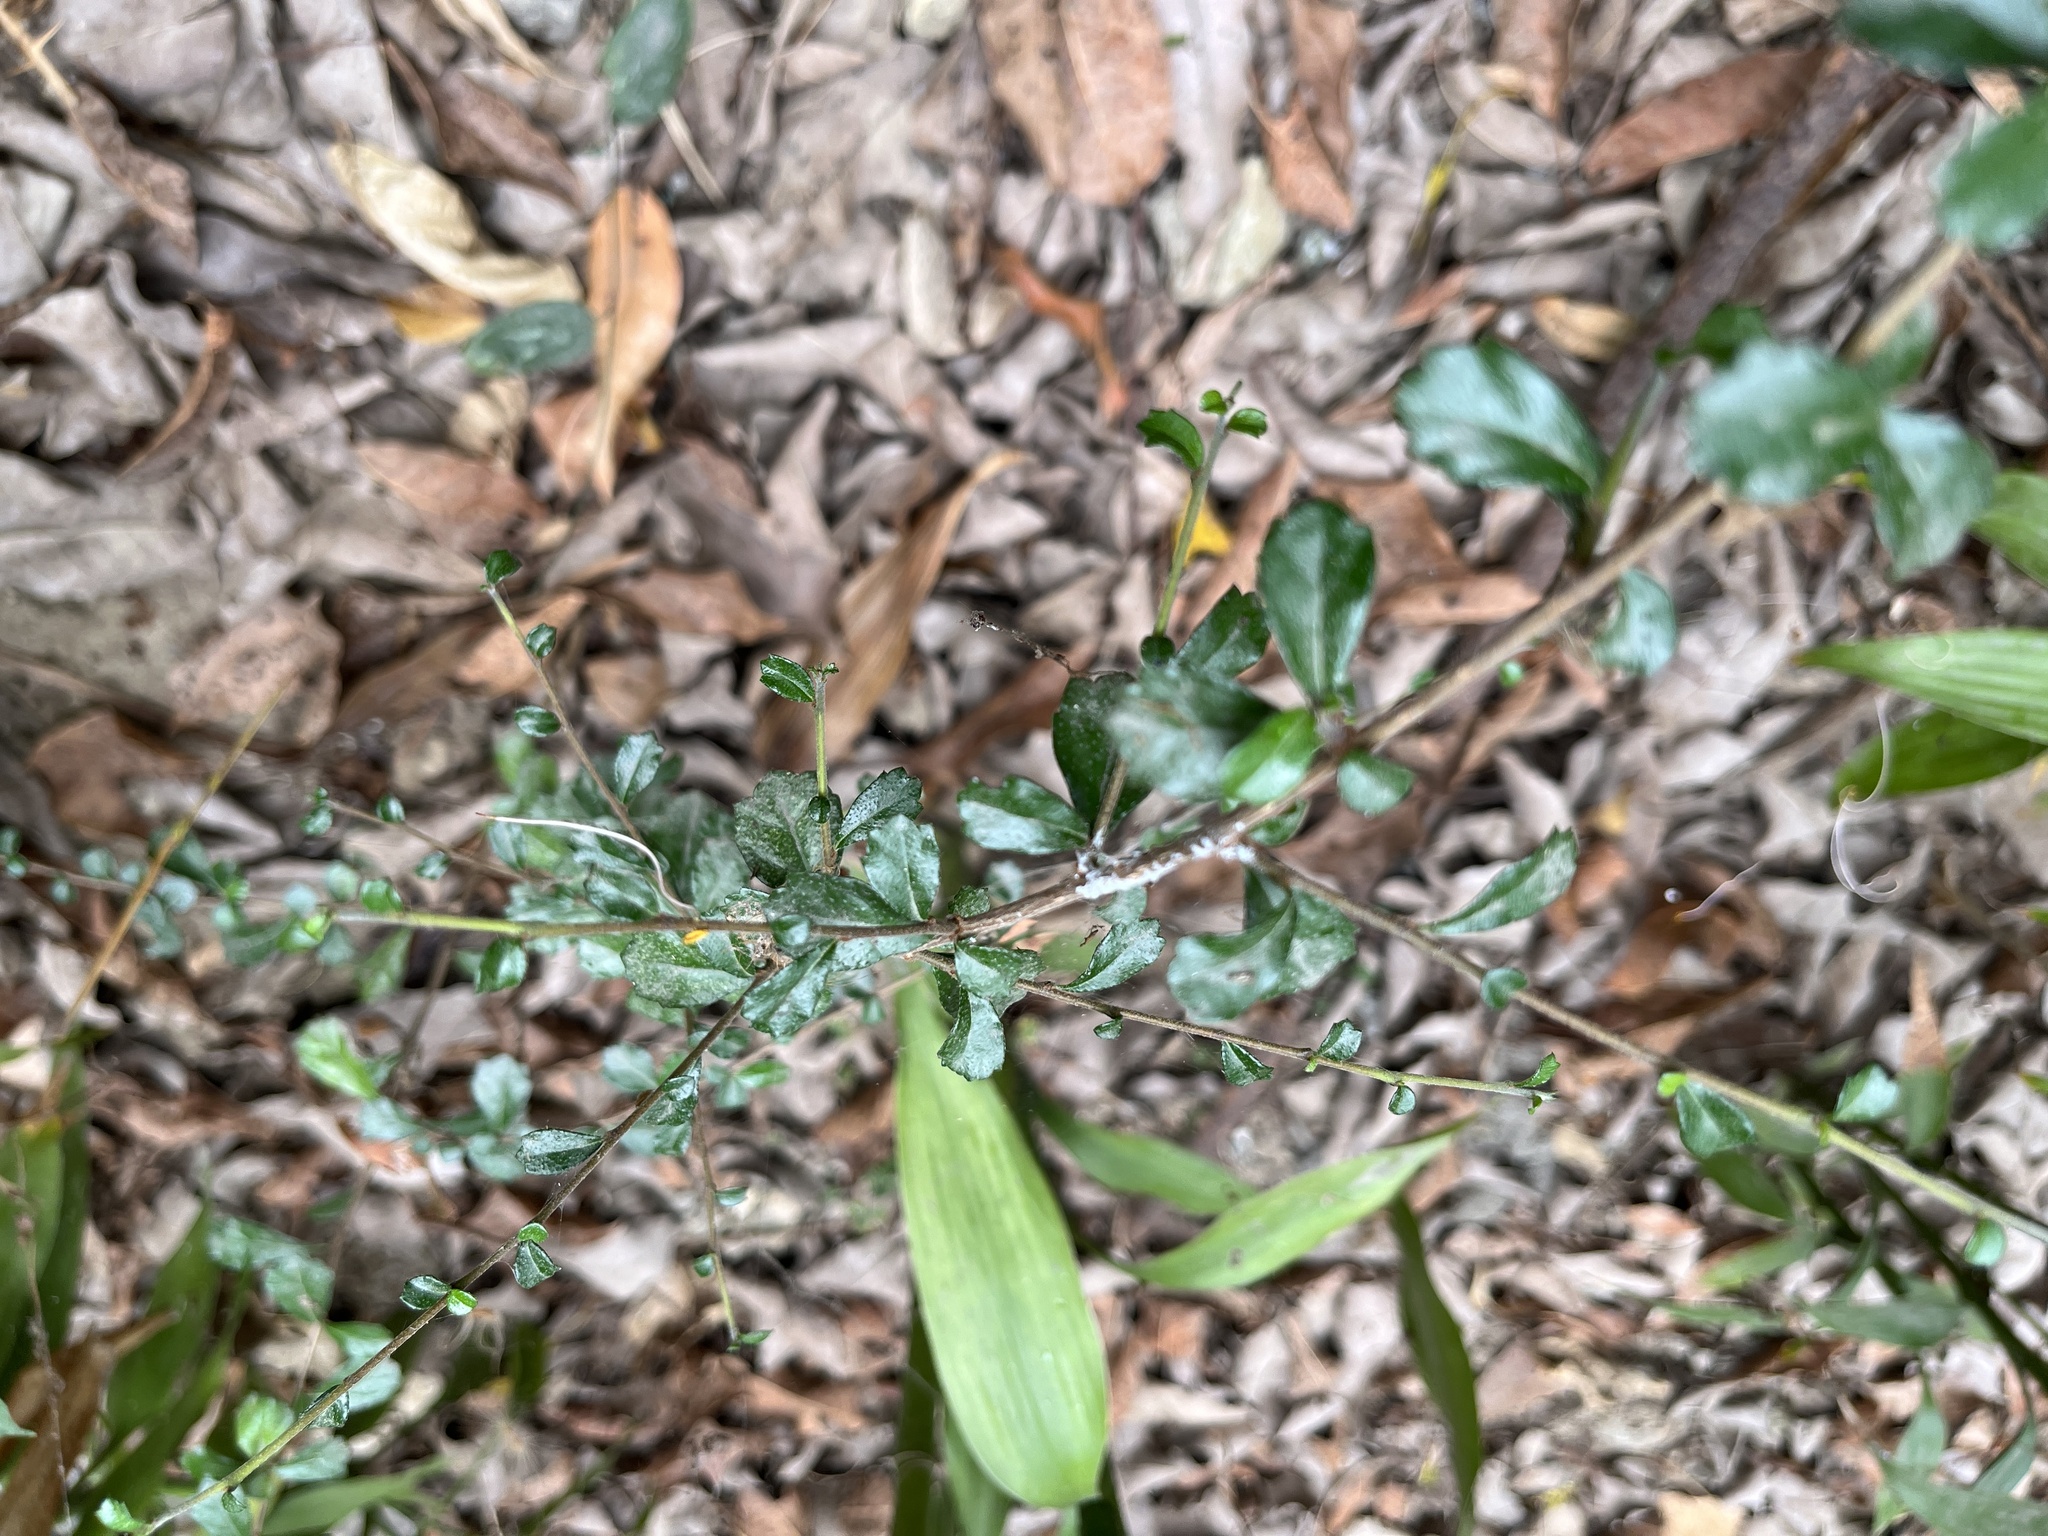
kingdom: Plantae
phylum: Tracheophyta
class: Magnoliopsida
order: Boraginales
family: Ehretiaceae
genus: Ehretia
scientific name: Ehretia microphylla
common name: Fukien-tea
